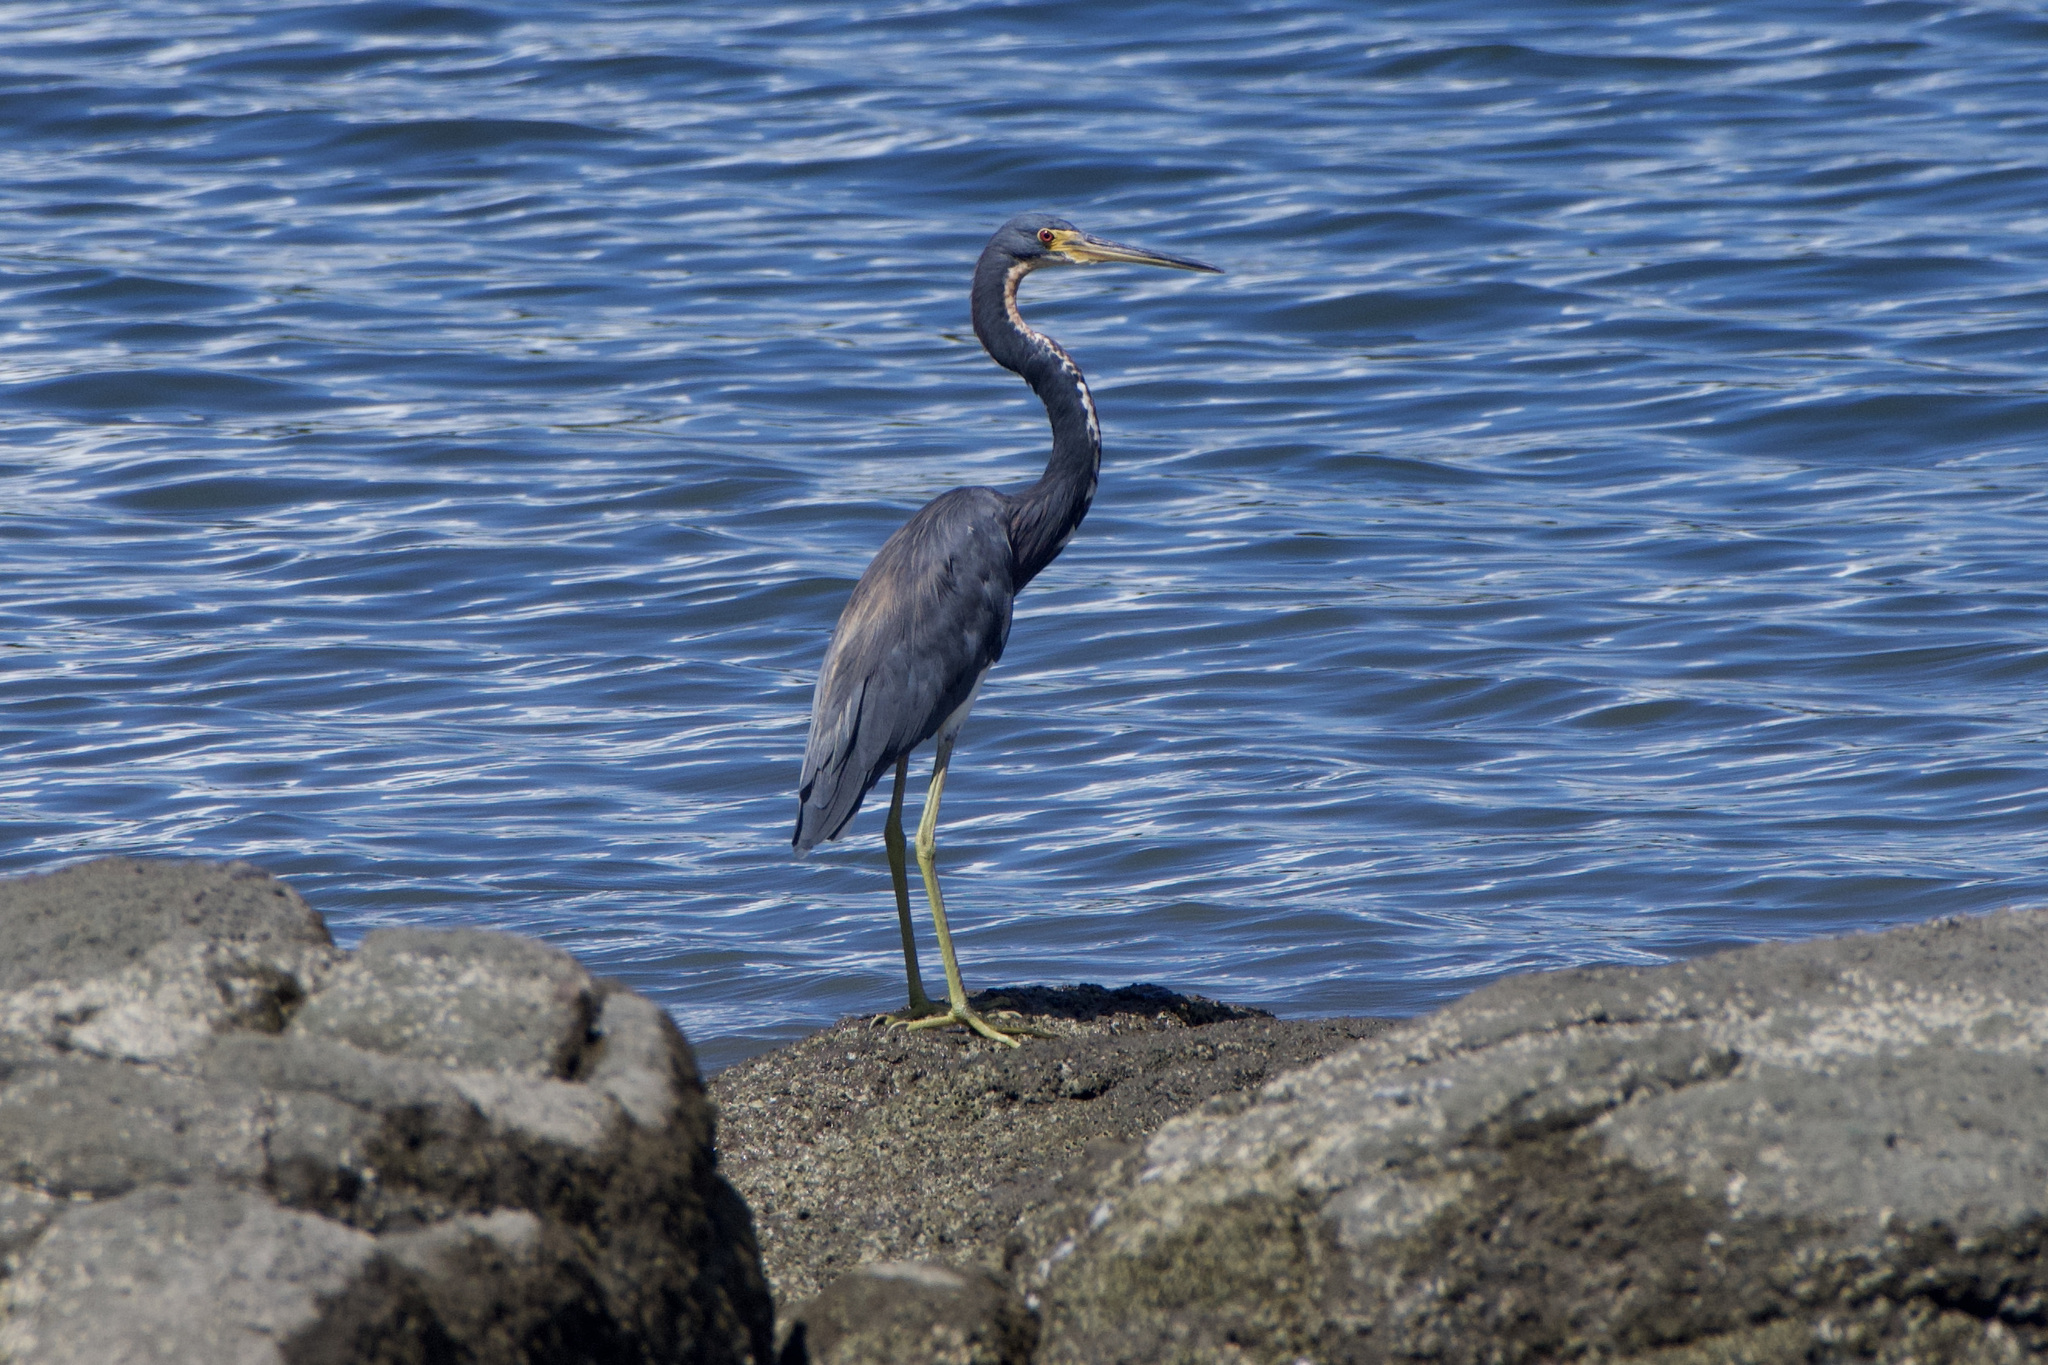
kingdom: Animalia
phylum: Chordata
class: Aves
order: Pelecaniformes
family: Ardeidae
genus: Egretta
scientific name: Egretta tricolor
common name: Tricolored heron
